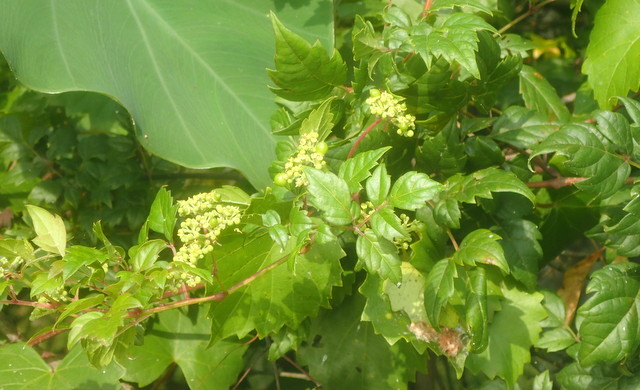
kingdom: Plantae
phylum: Tracheophyta
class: Magnoliopsida
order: Vitales
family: Vitaceae
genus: Nekemias
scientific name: Nekemias arborea
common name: Peppervine
